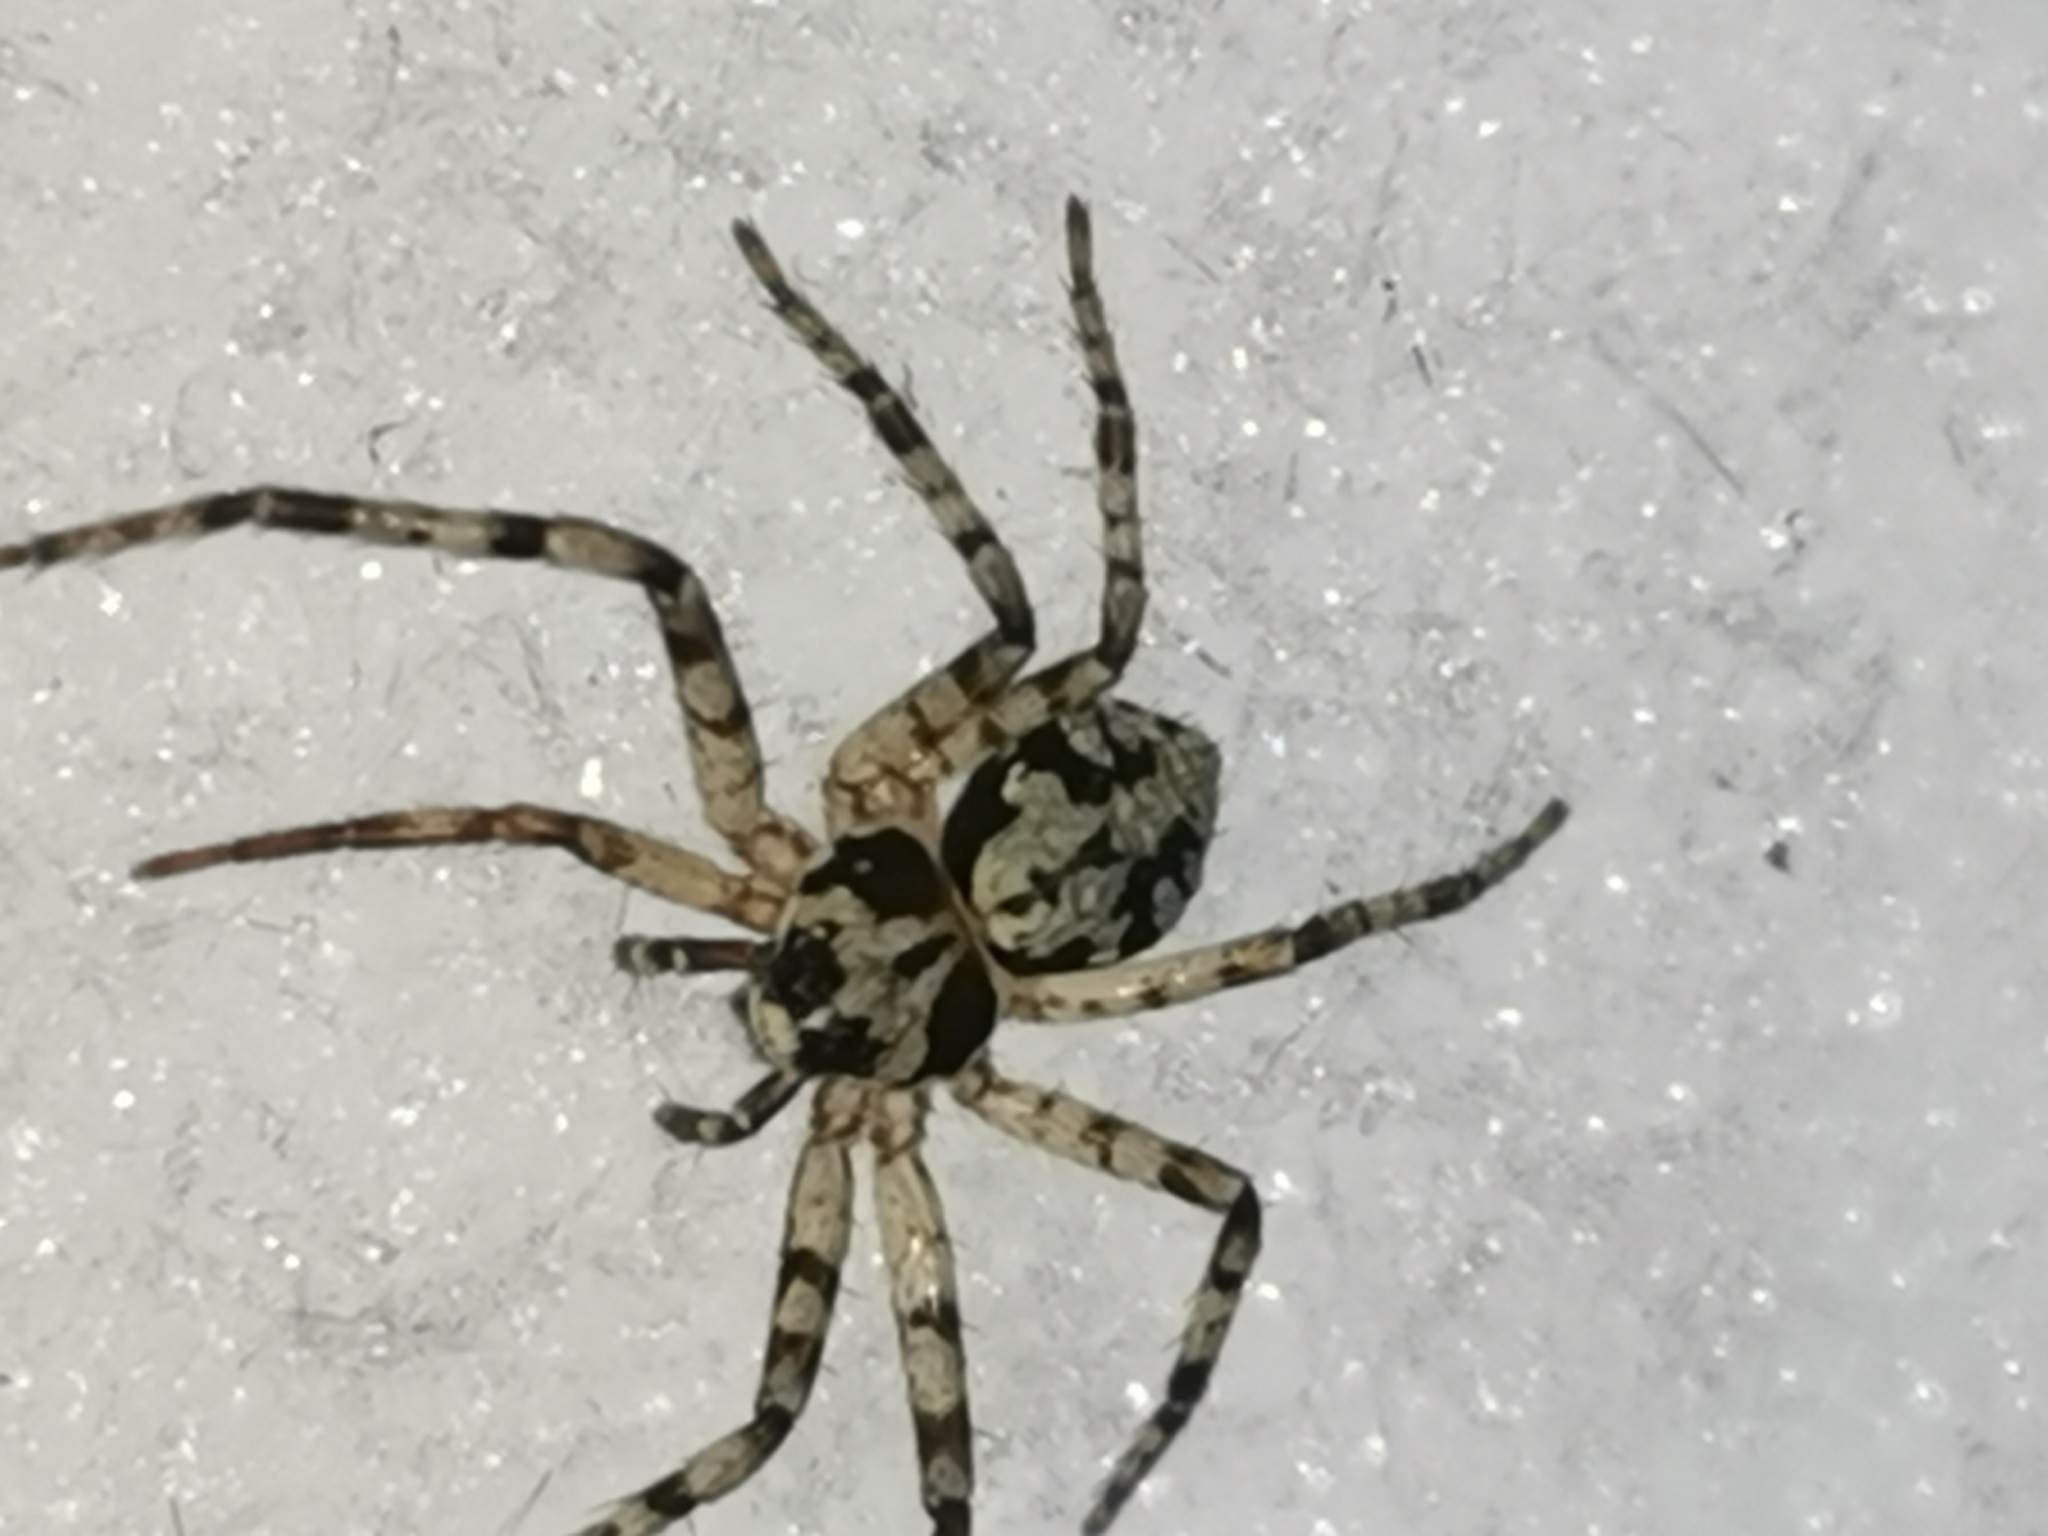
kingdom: Animalia
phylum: Arthropoda
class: Arachnida
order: Araneae
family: Philodromidae
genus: Philodromus
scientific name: Philodromus margaritatus
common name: Lichen running-spider
